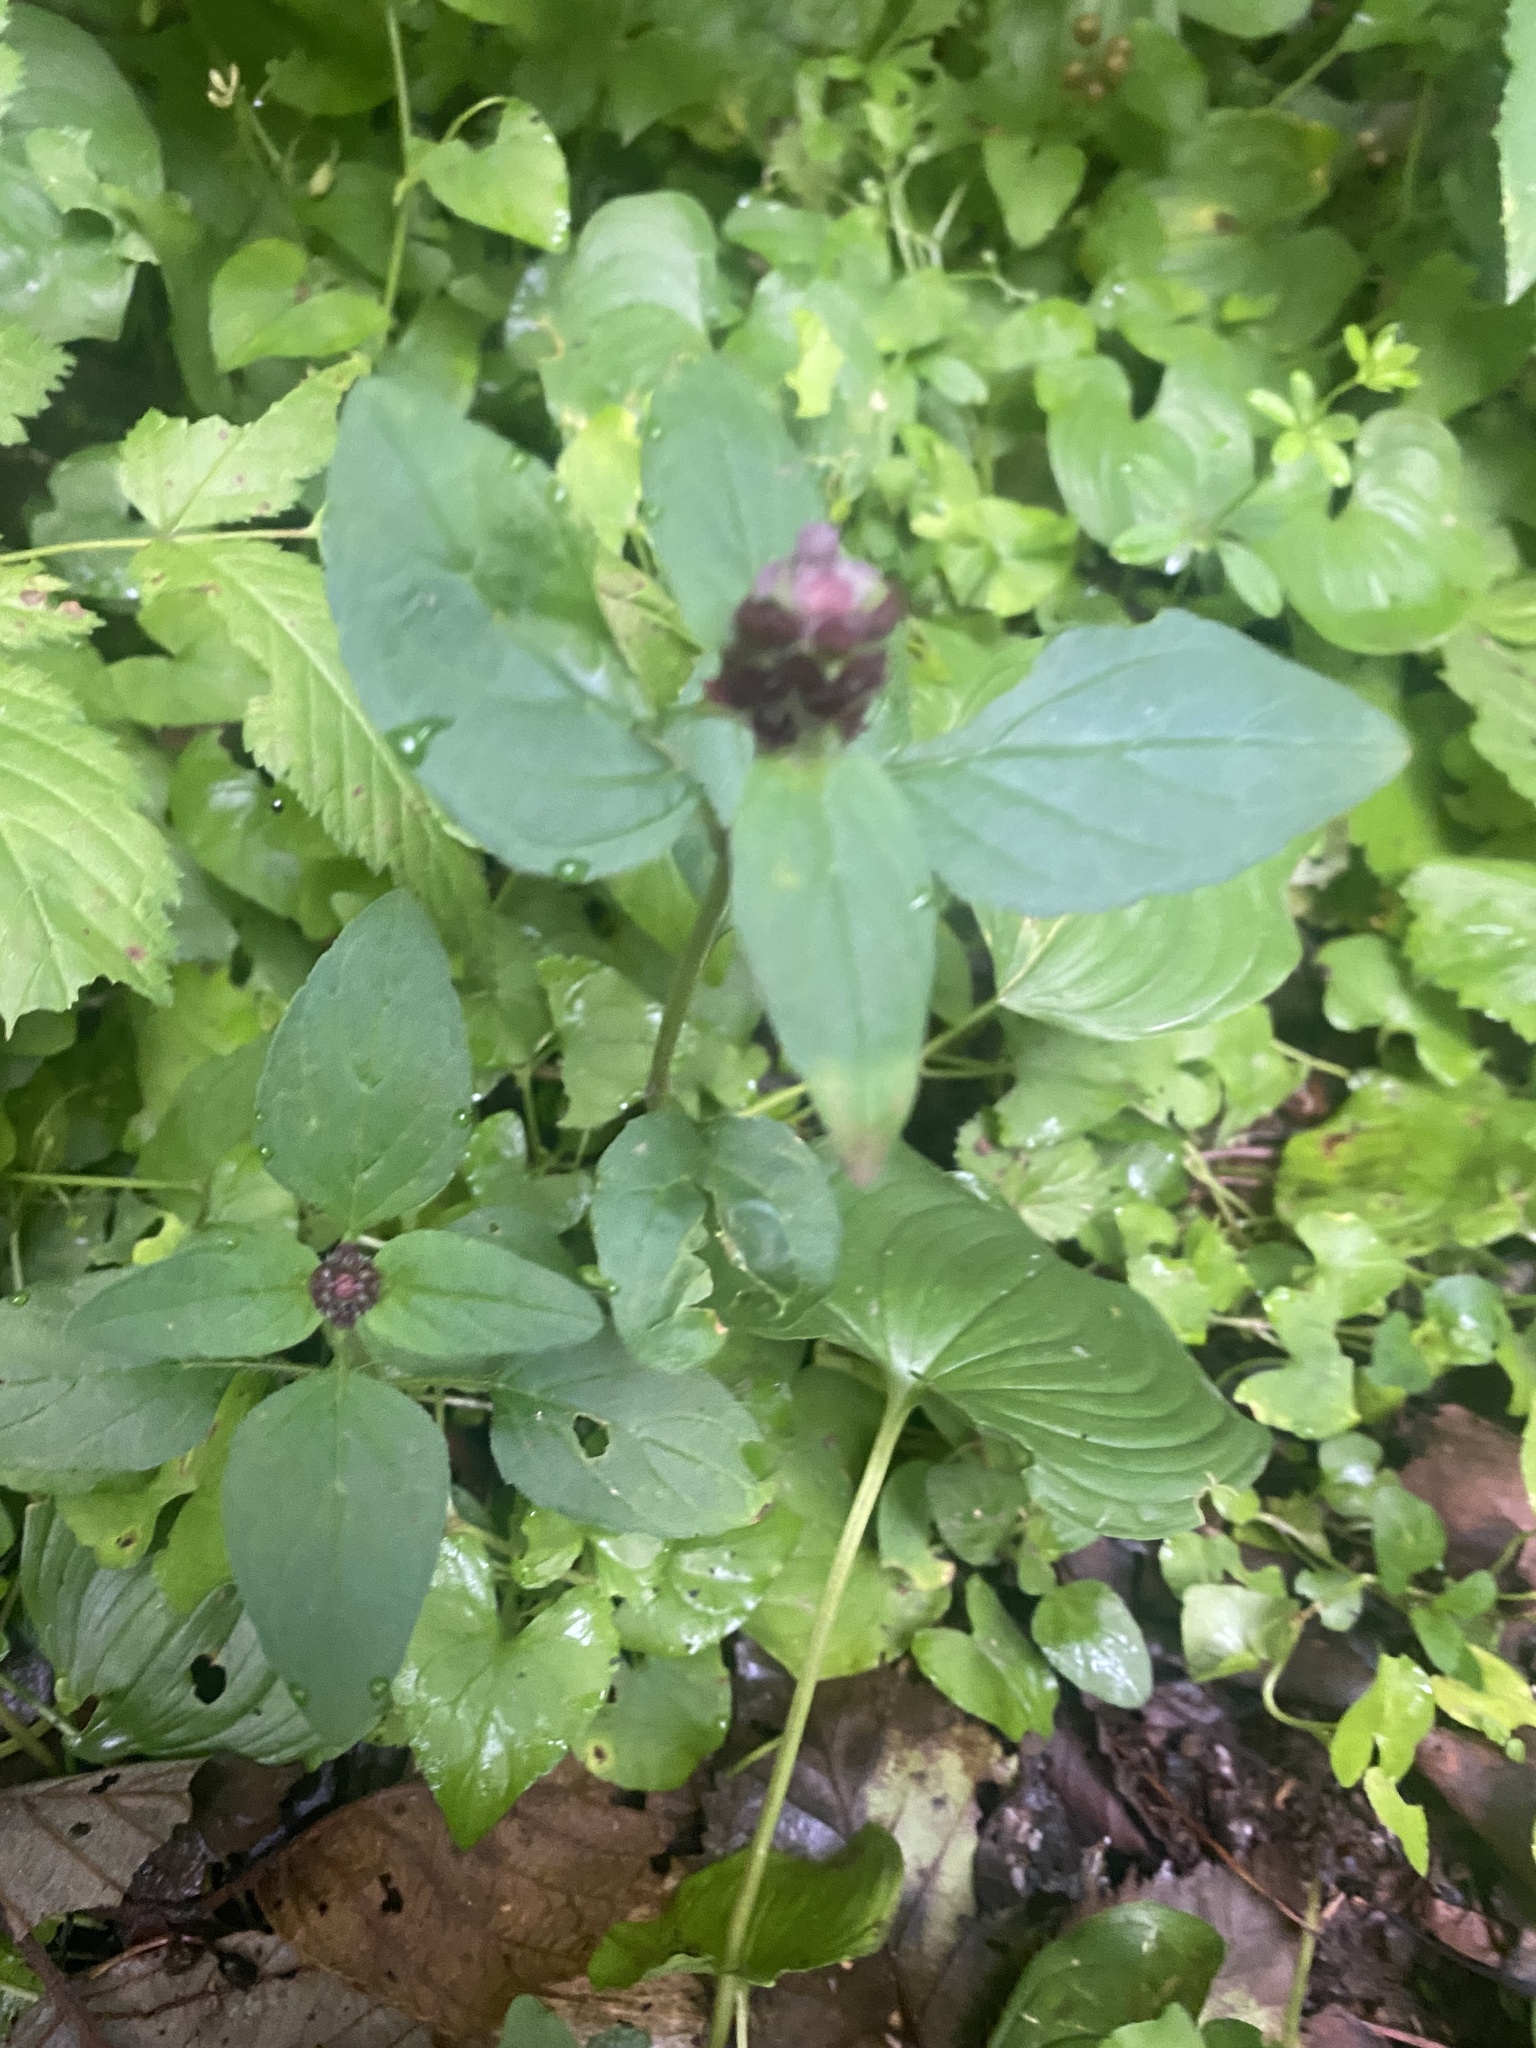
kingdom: Plantae
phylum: Tracheophyta
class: Magnoliopsida
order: Lamiales
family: Lamiaceae
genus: Prunella
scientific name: Prunella vulgaris
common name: Heal-all
